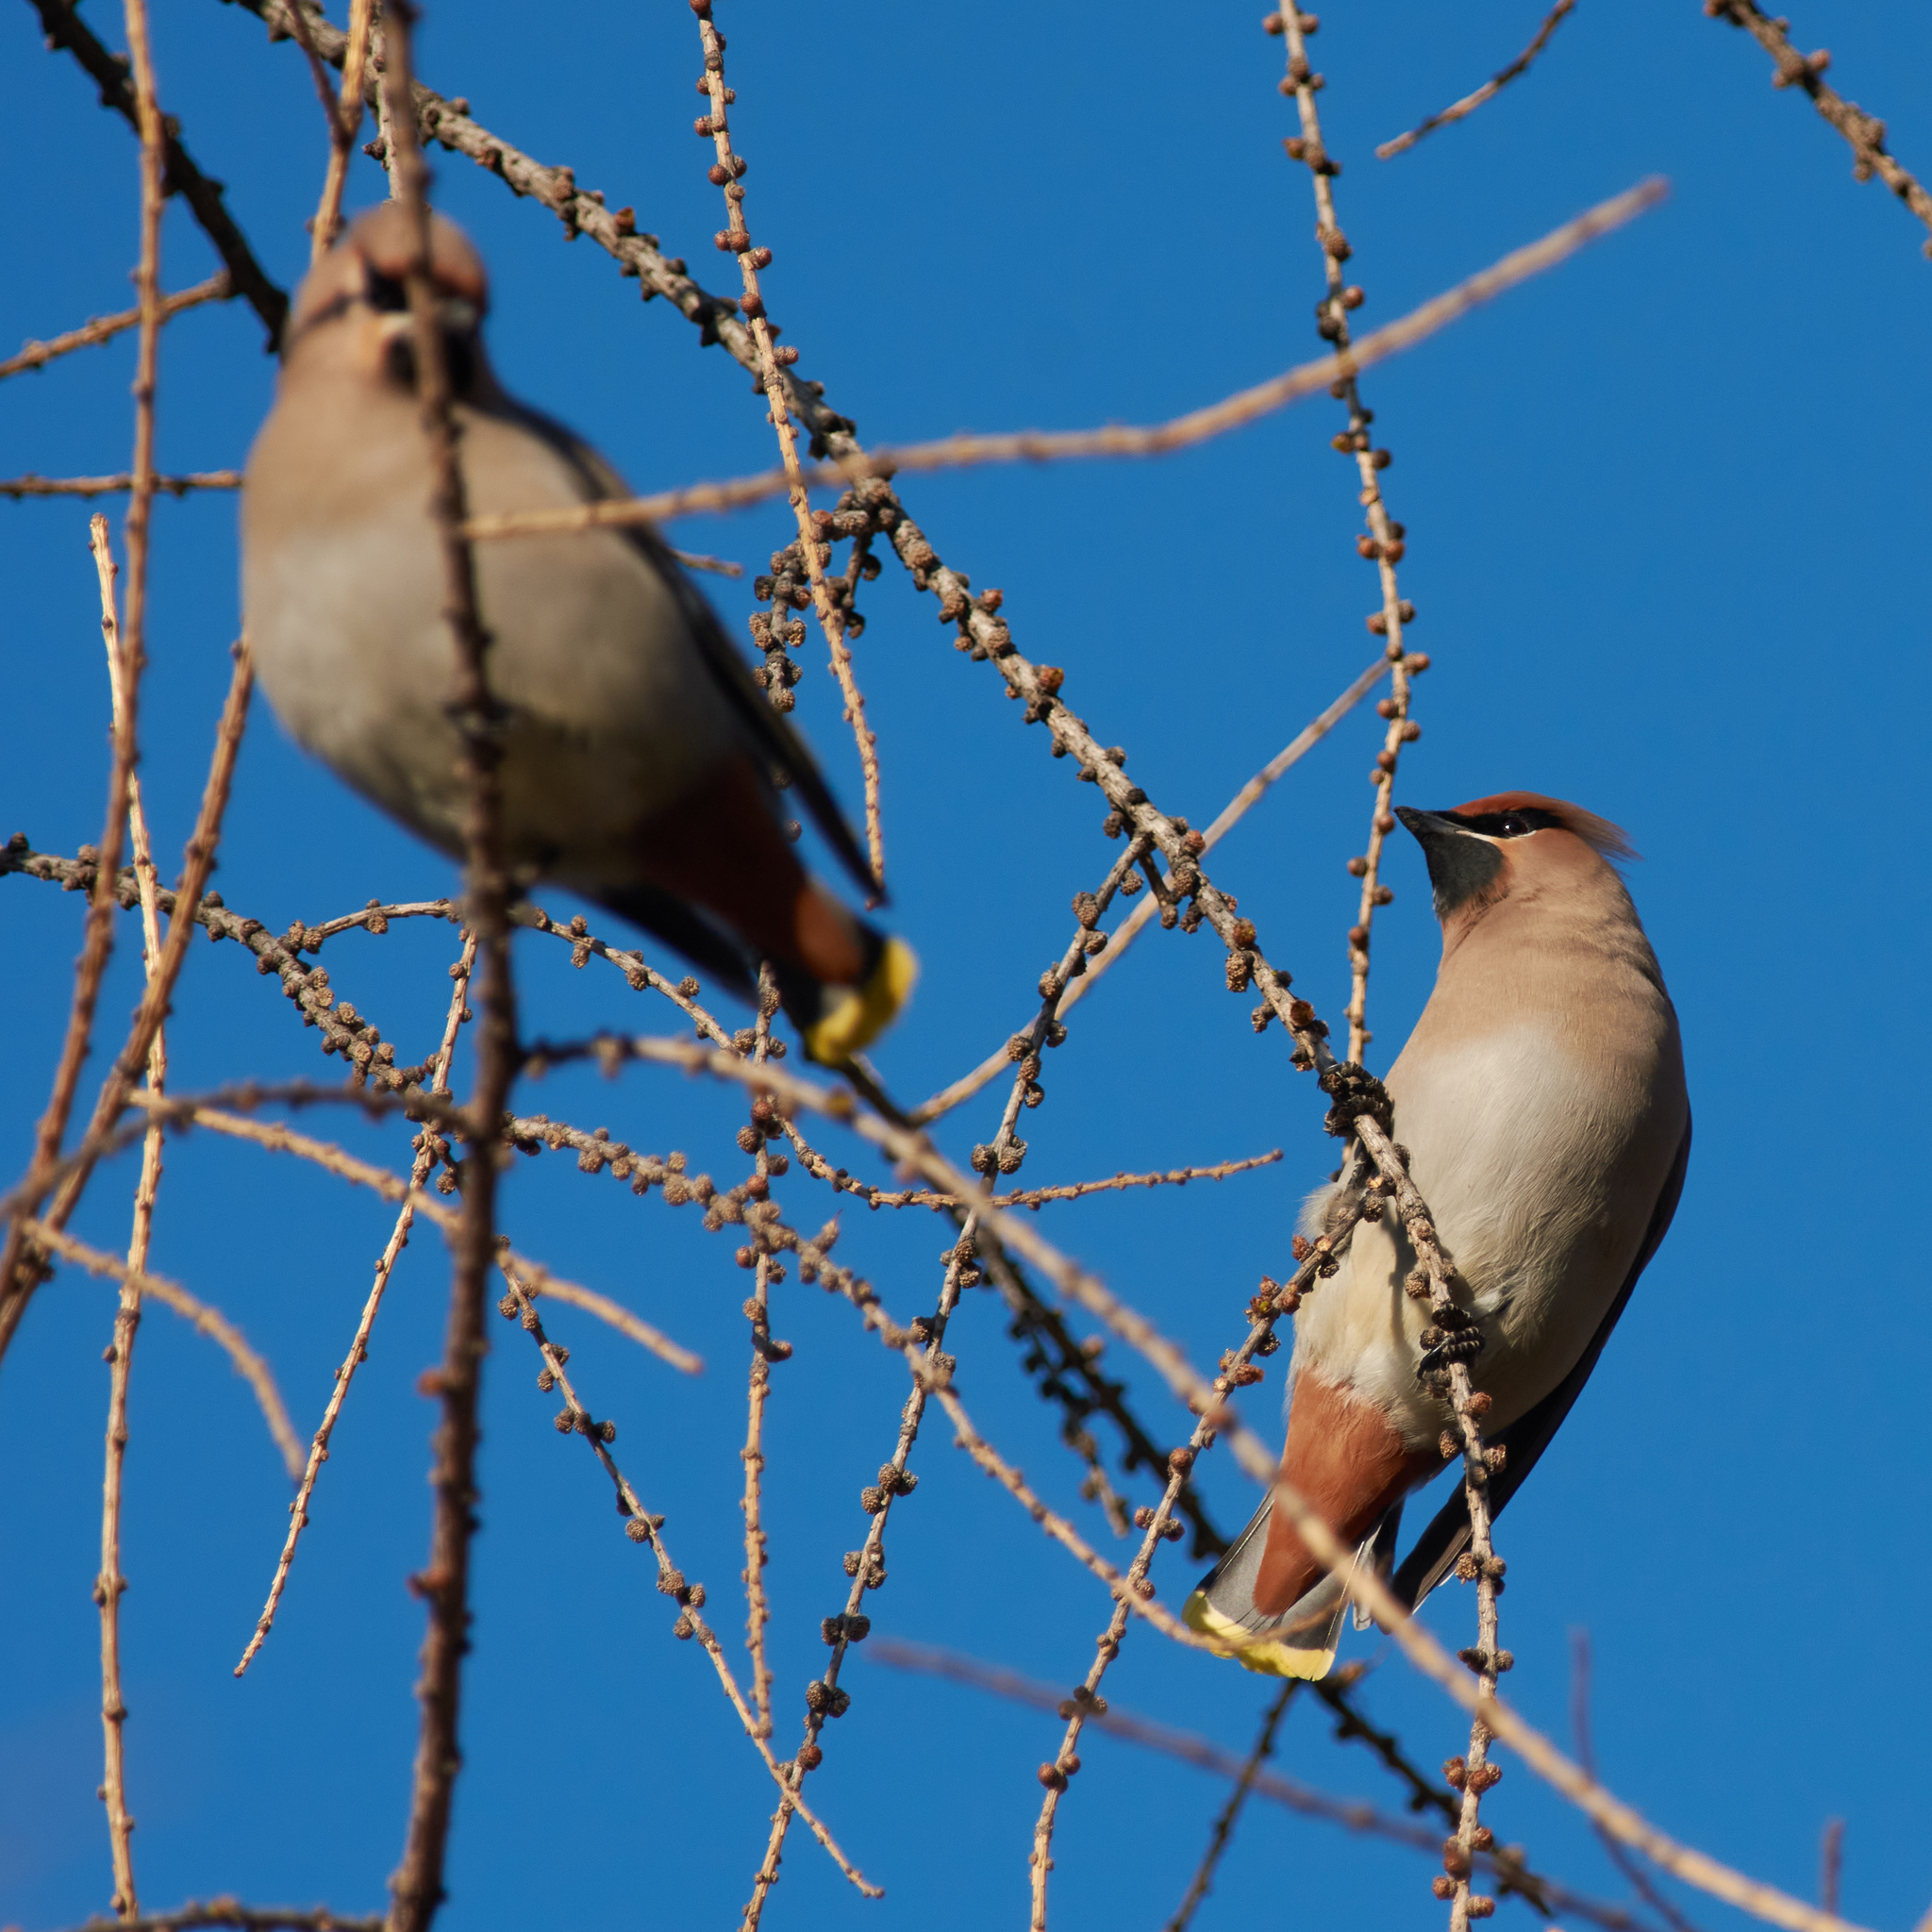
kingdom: Animalia
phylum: Chordata
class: Aves
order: Passeriformes
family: Bombycillidae
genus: Bombycilla
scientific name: Bombycilla garrulus
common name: Bohemian waxwing
